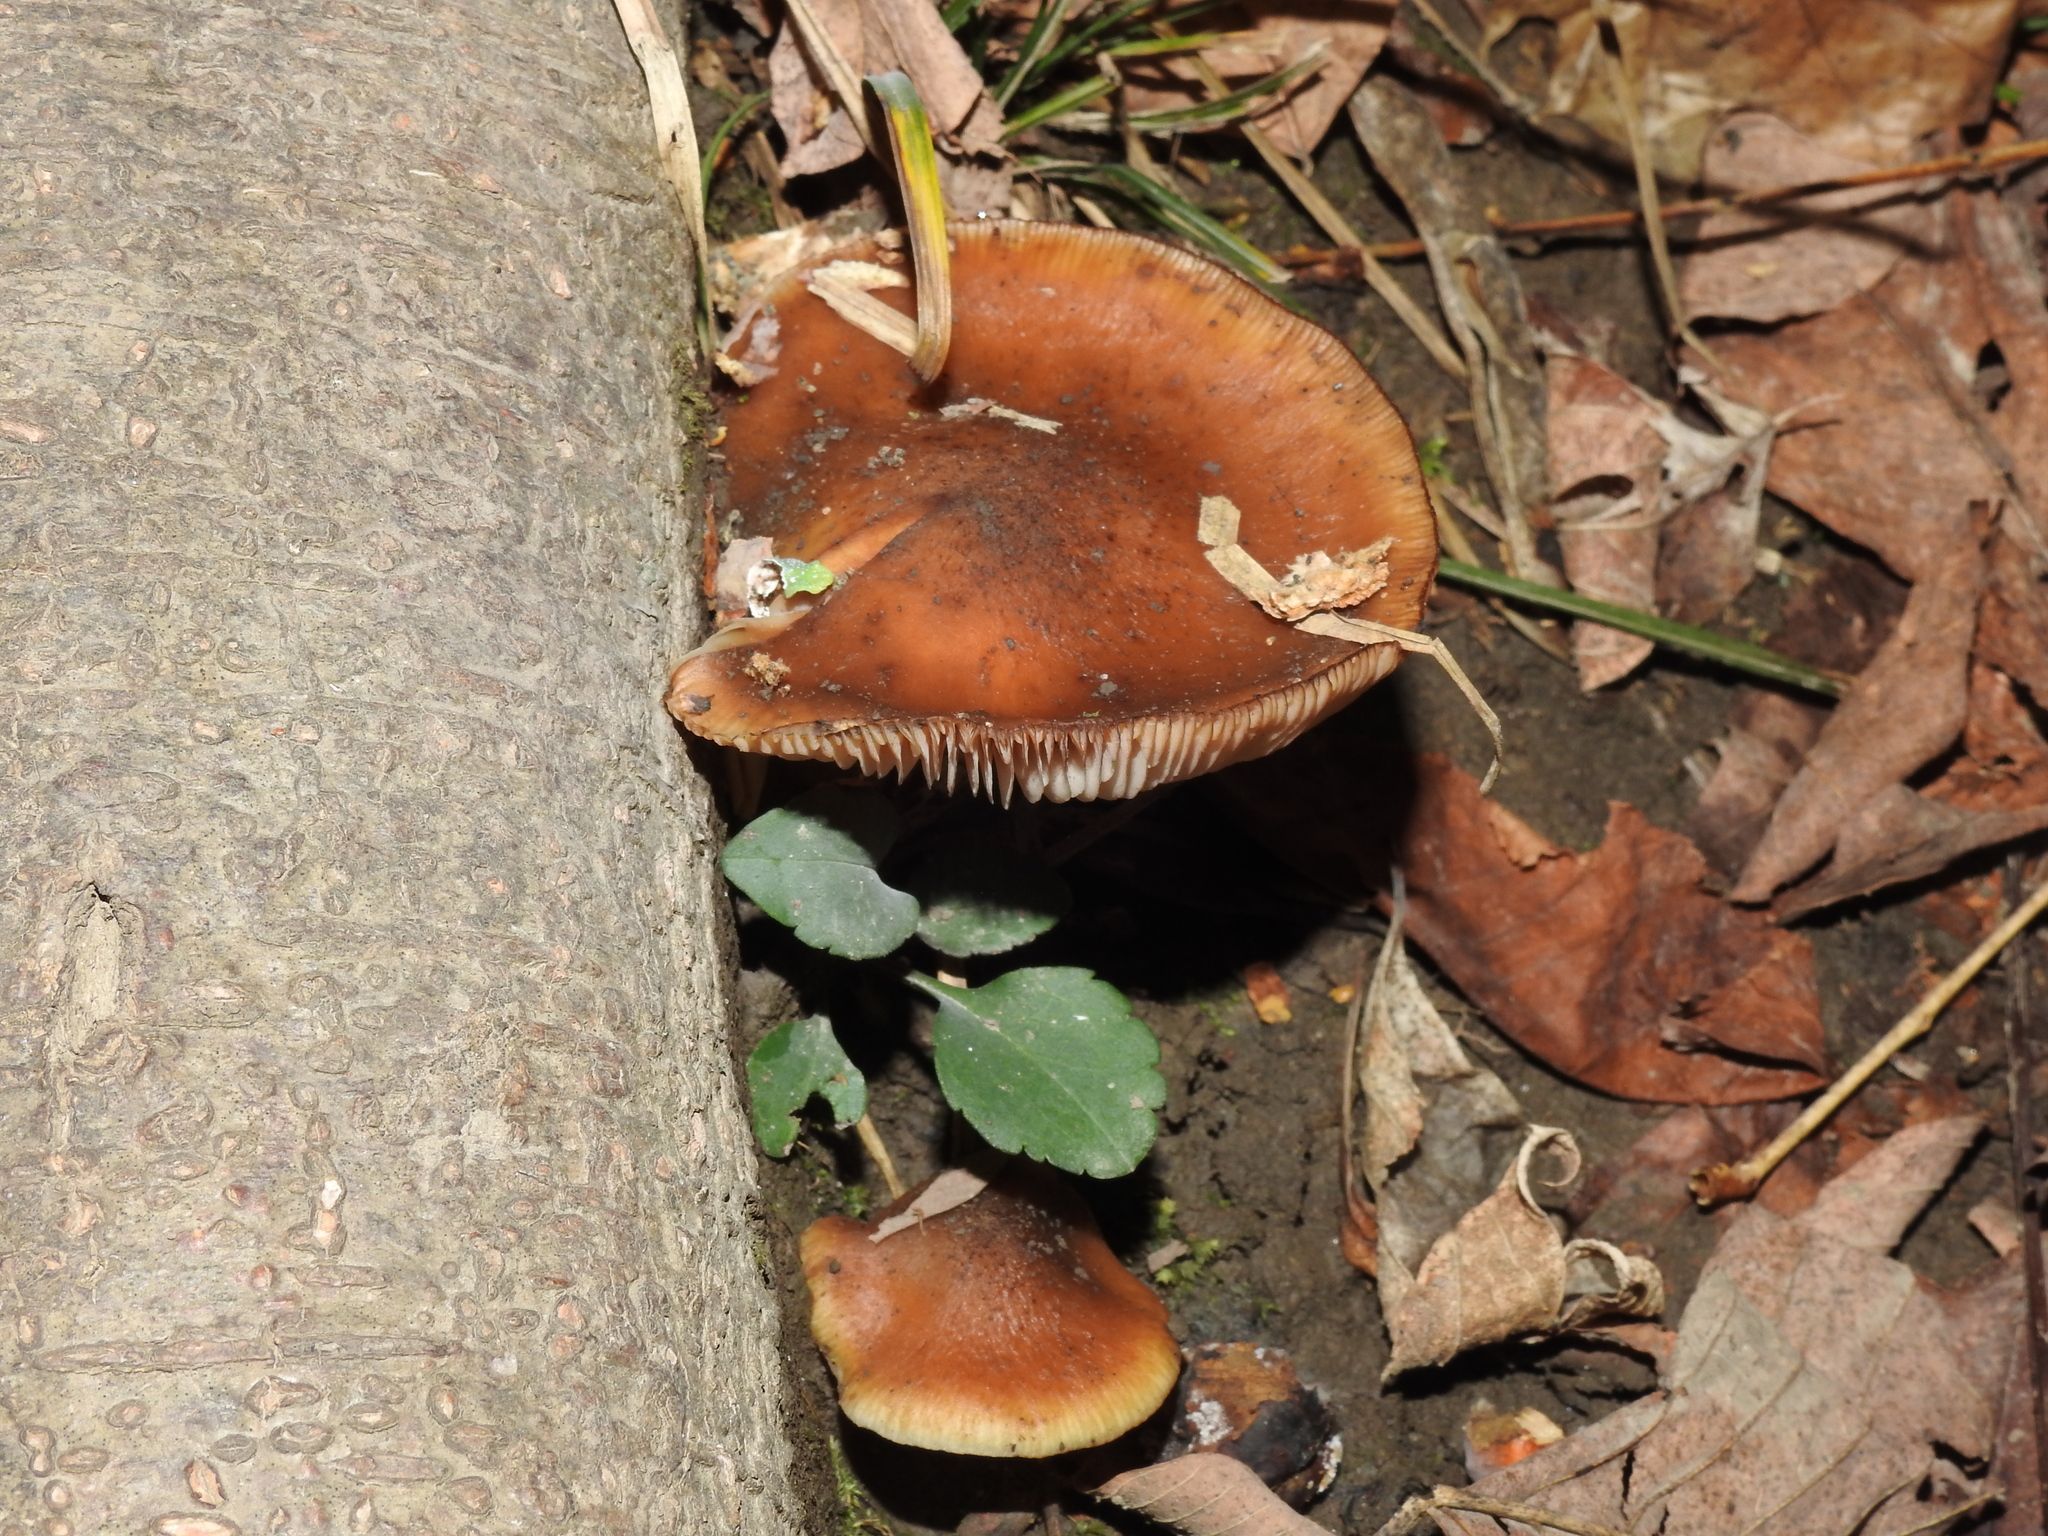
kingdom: Fungi
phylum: Basidiomycota
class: Agaricomycetes
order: Agaricales
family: Physalacriaceae
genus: Armillaria
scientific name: Armillaria gallica
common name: Bulbous honey fungus
